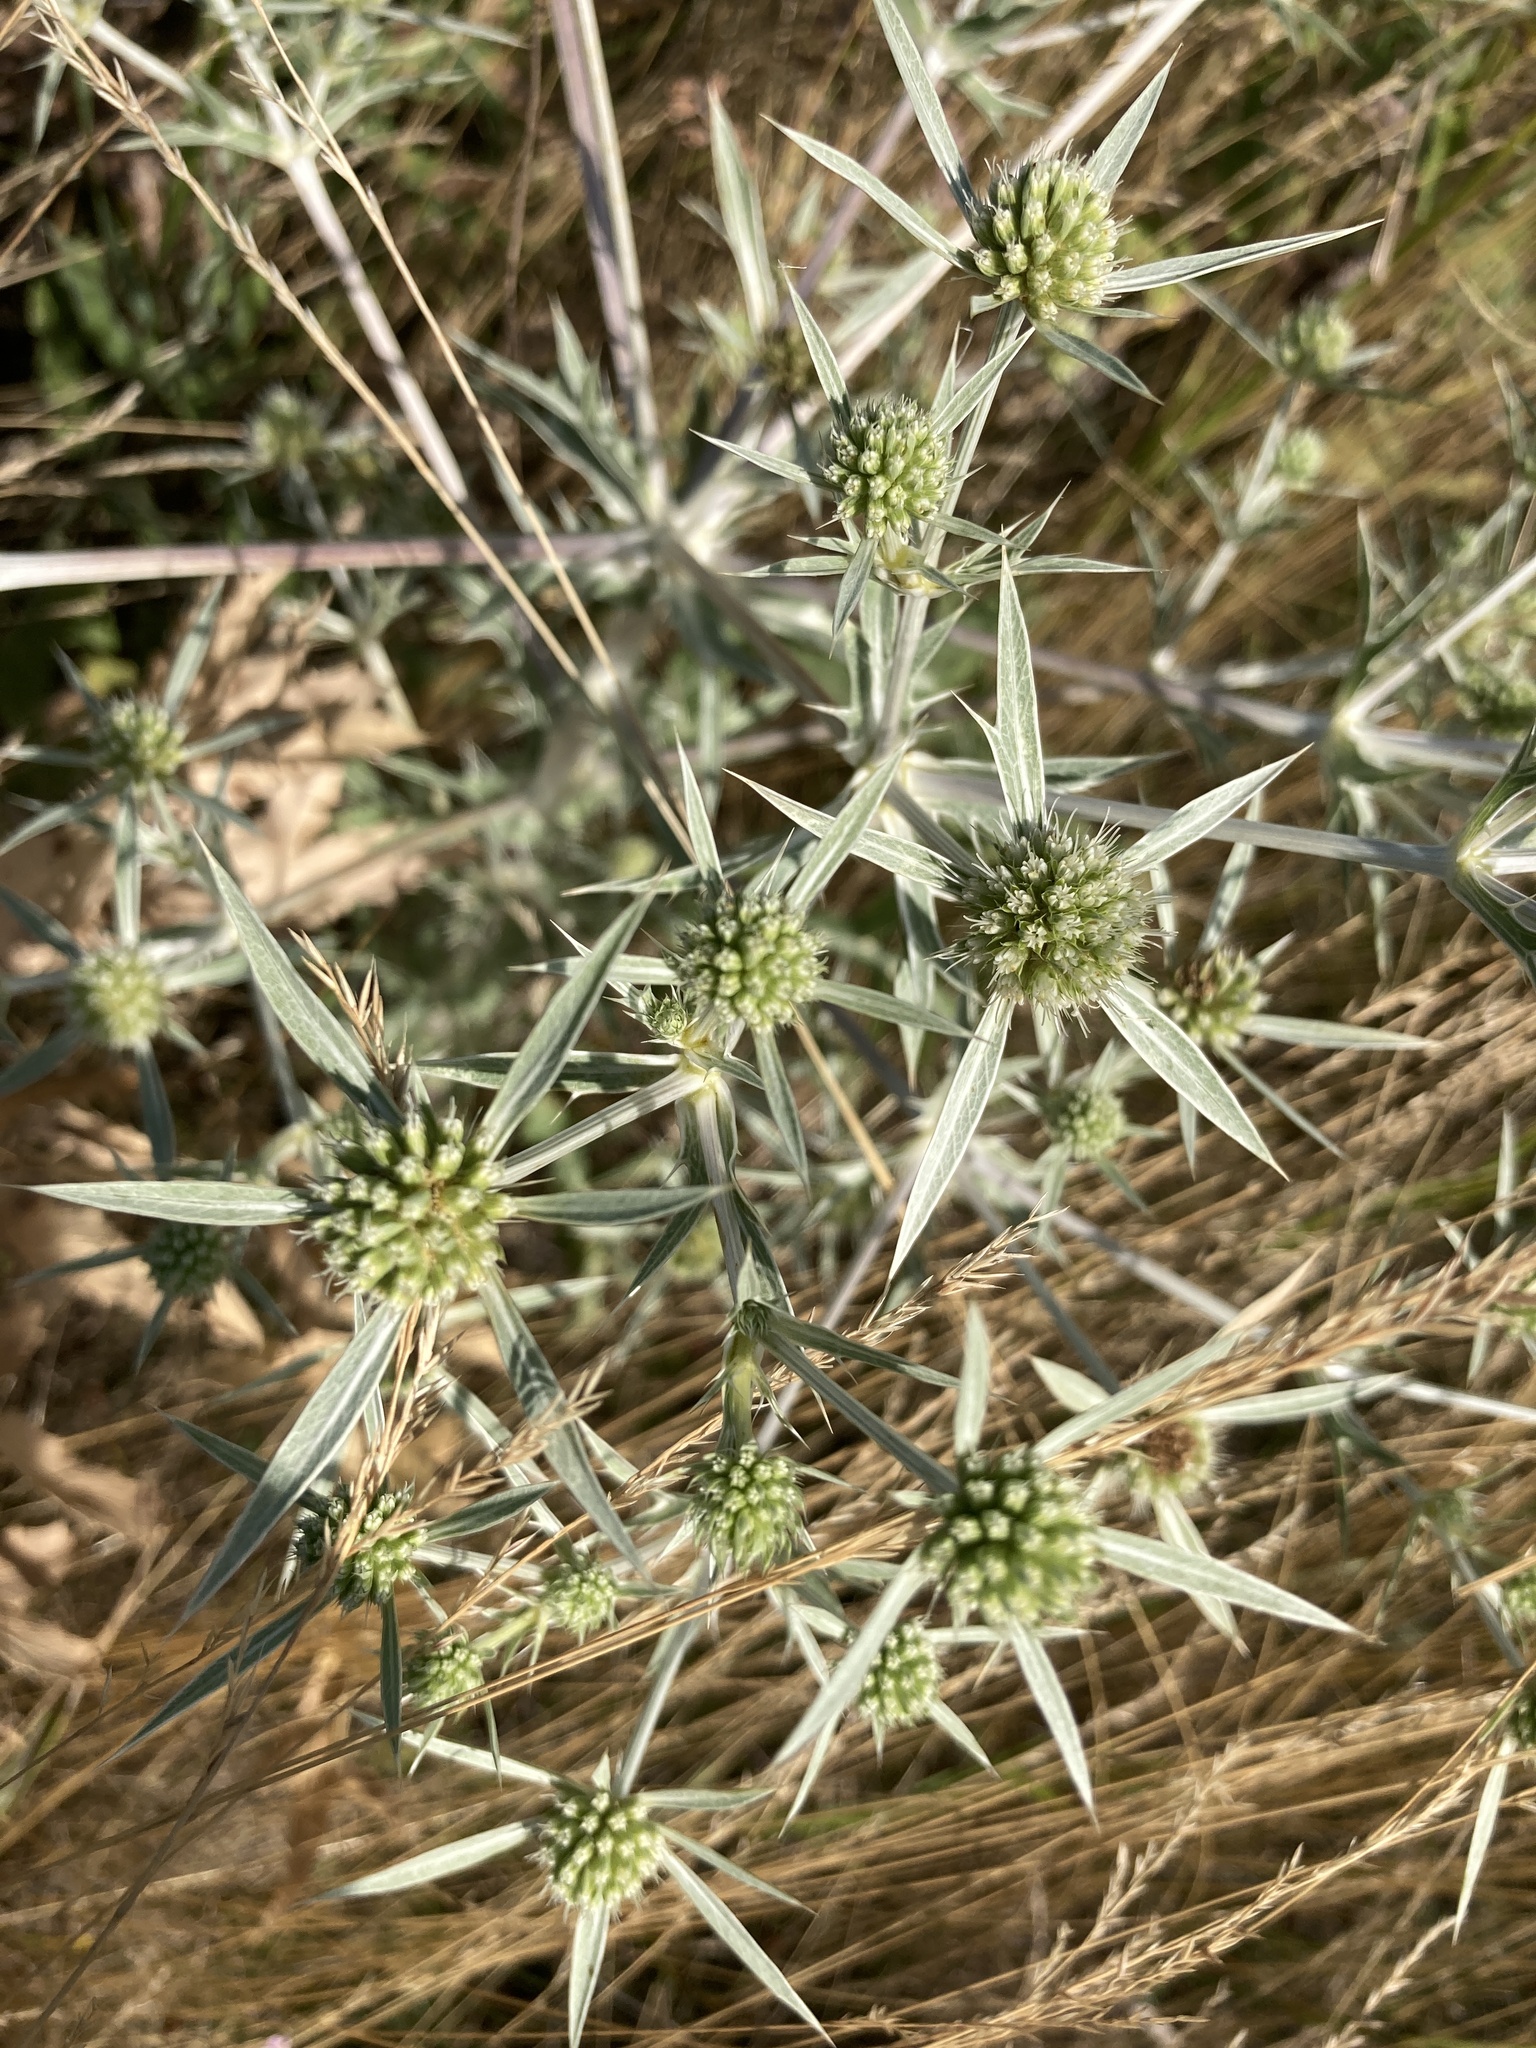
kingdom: Plantae
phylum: Tracheophyta
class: Magnoliopsida
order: Apiales
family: Apiaceae
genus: Eryngium
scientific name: Eryngium campestre
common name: Field eryngo
